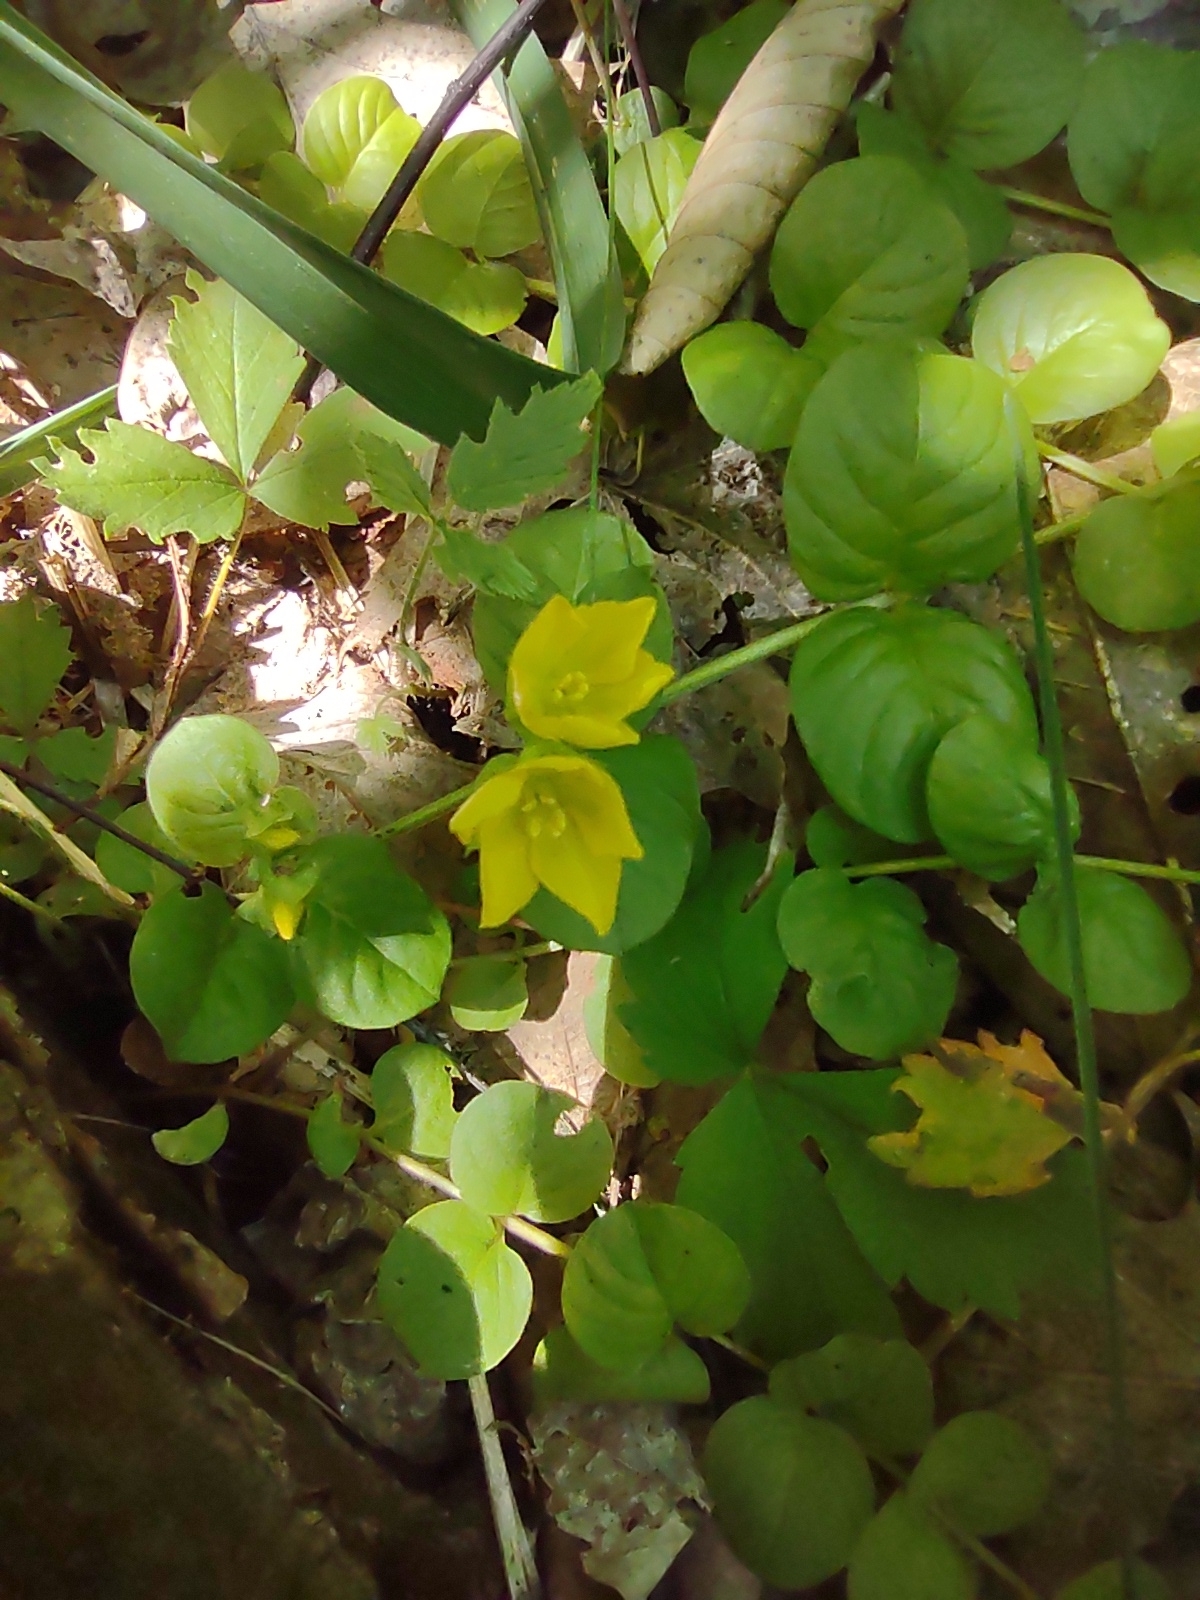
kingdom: Plantae
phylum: Tracheophyta
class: Magnoliopsida
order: Ericales
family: Primulaceae
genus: Lysimachia
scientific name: Lysimachia nummularia
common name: Moneywort
